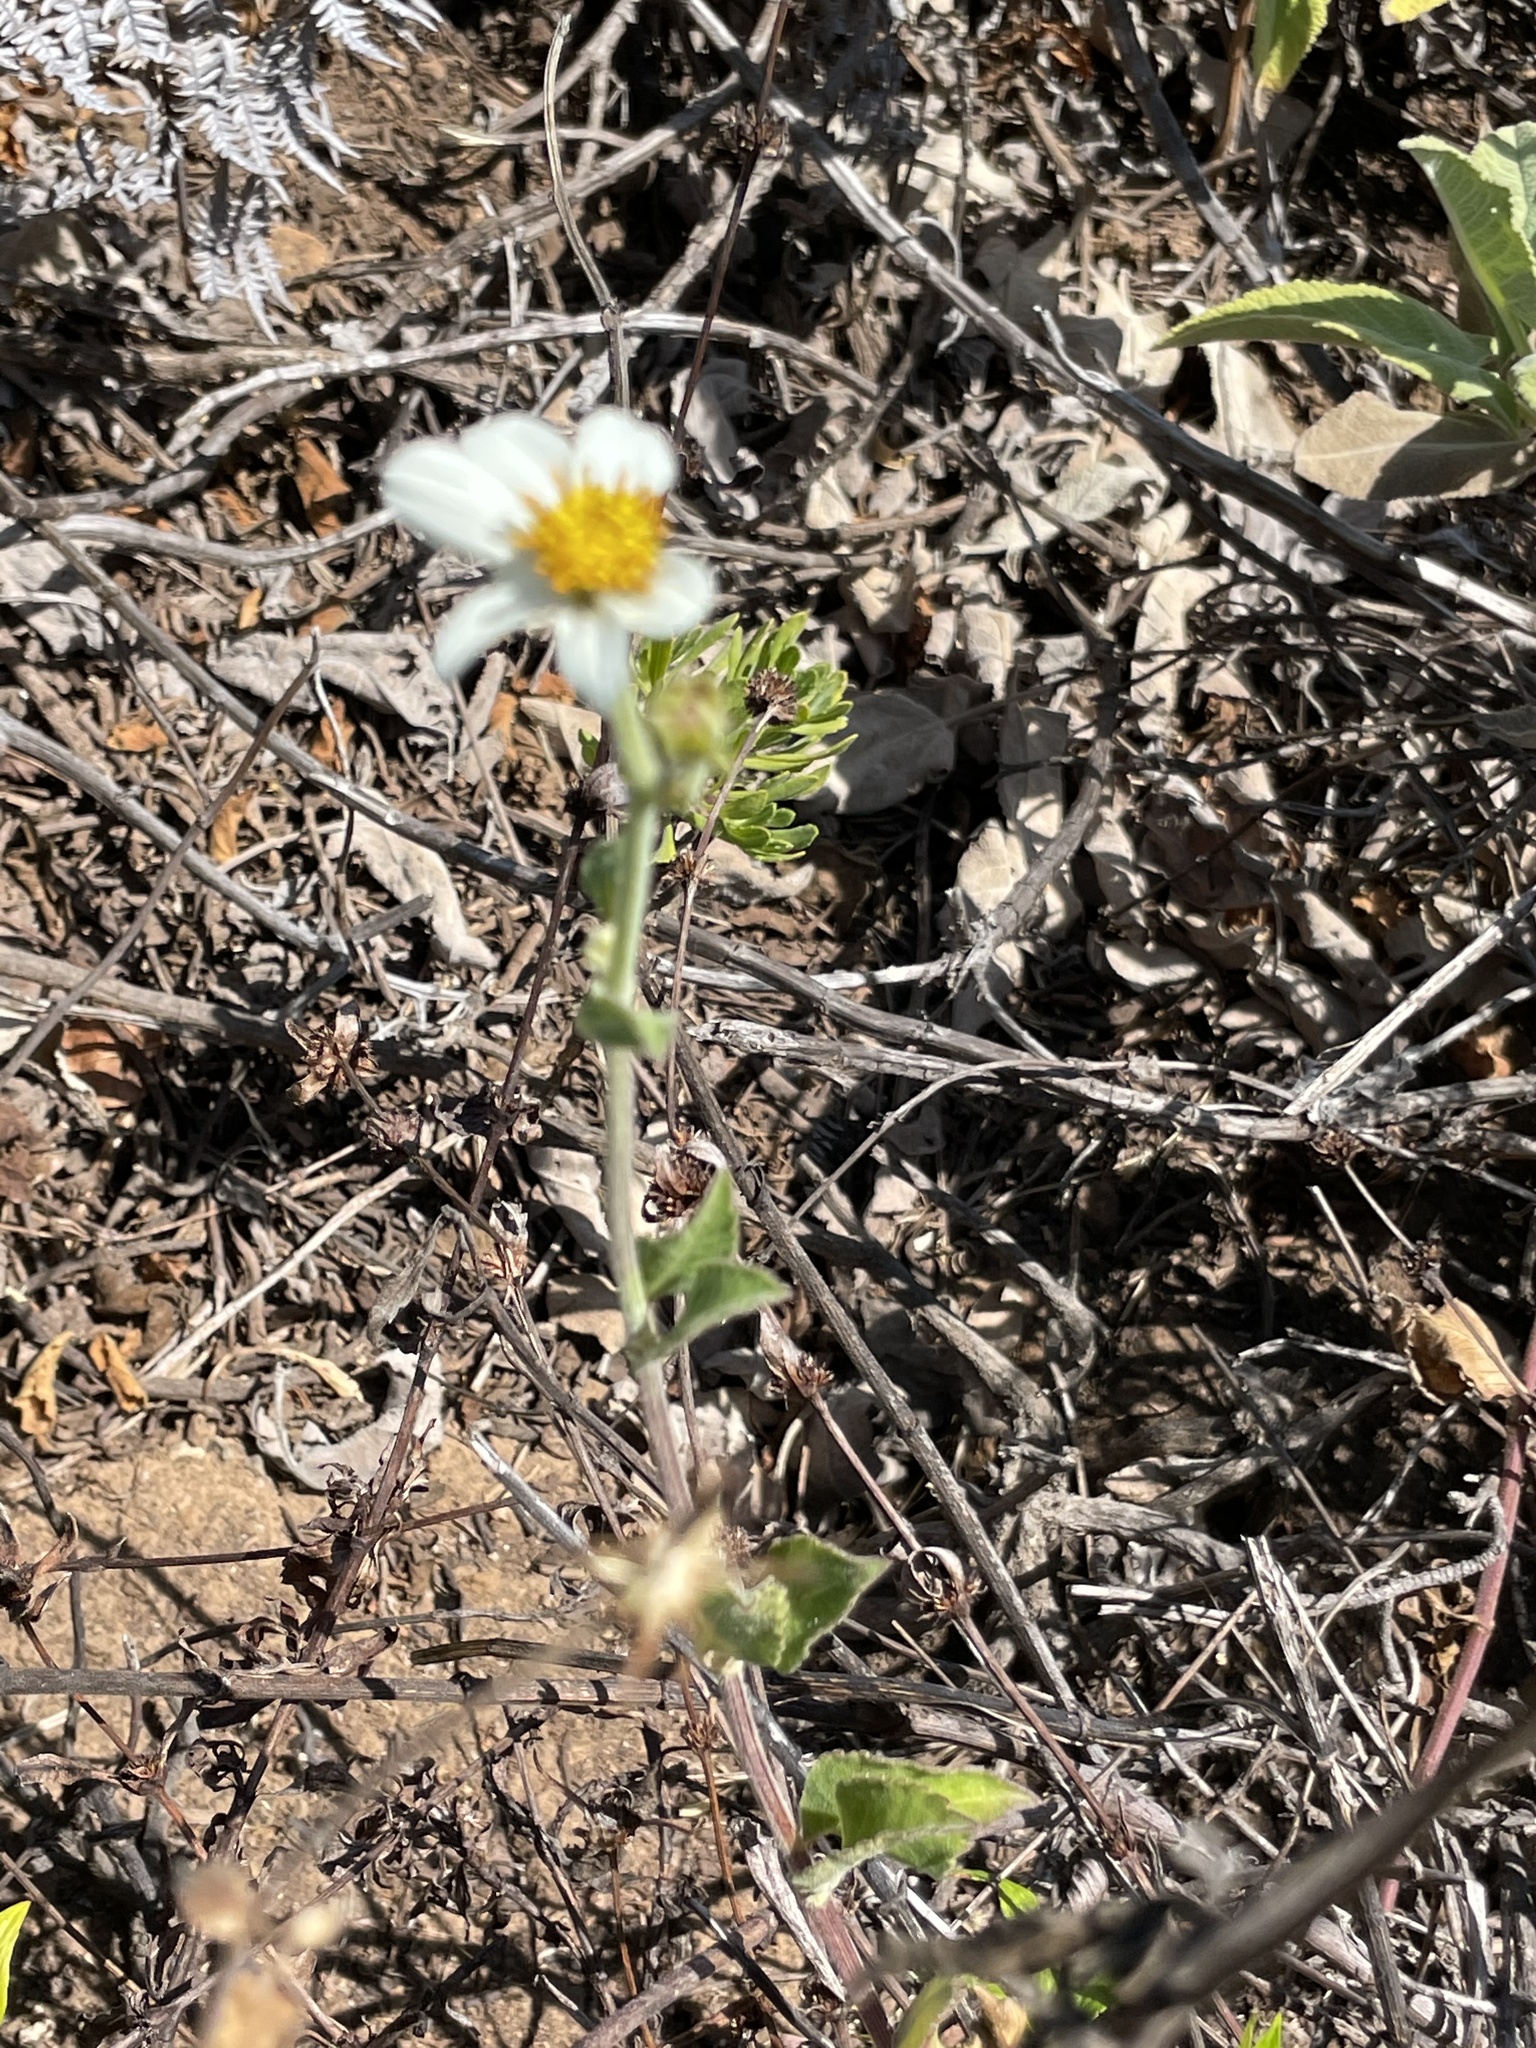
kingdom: Plantae
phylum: Tracheophyta
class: Magnoliopsida
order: Asterales
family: Asteraceae
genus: Bidens
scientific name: Bidens socorrensis
